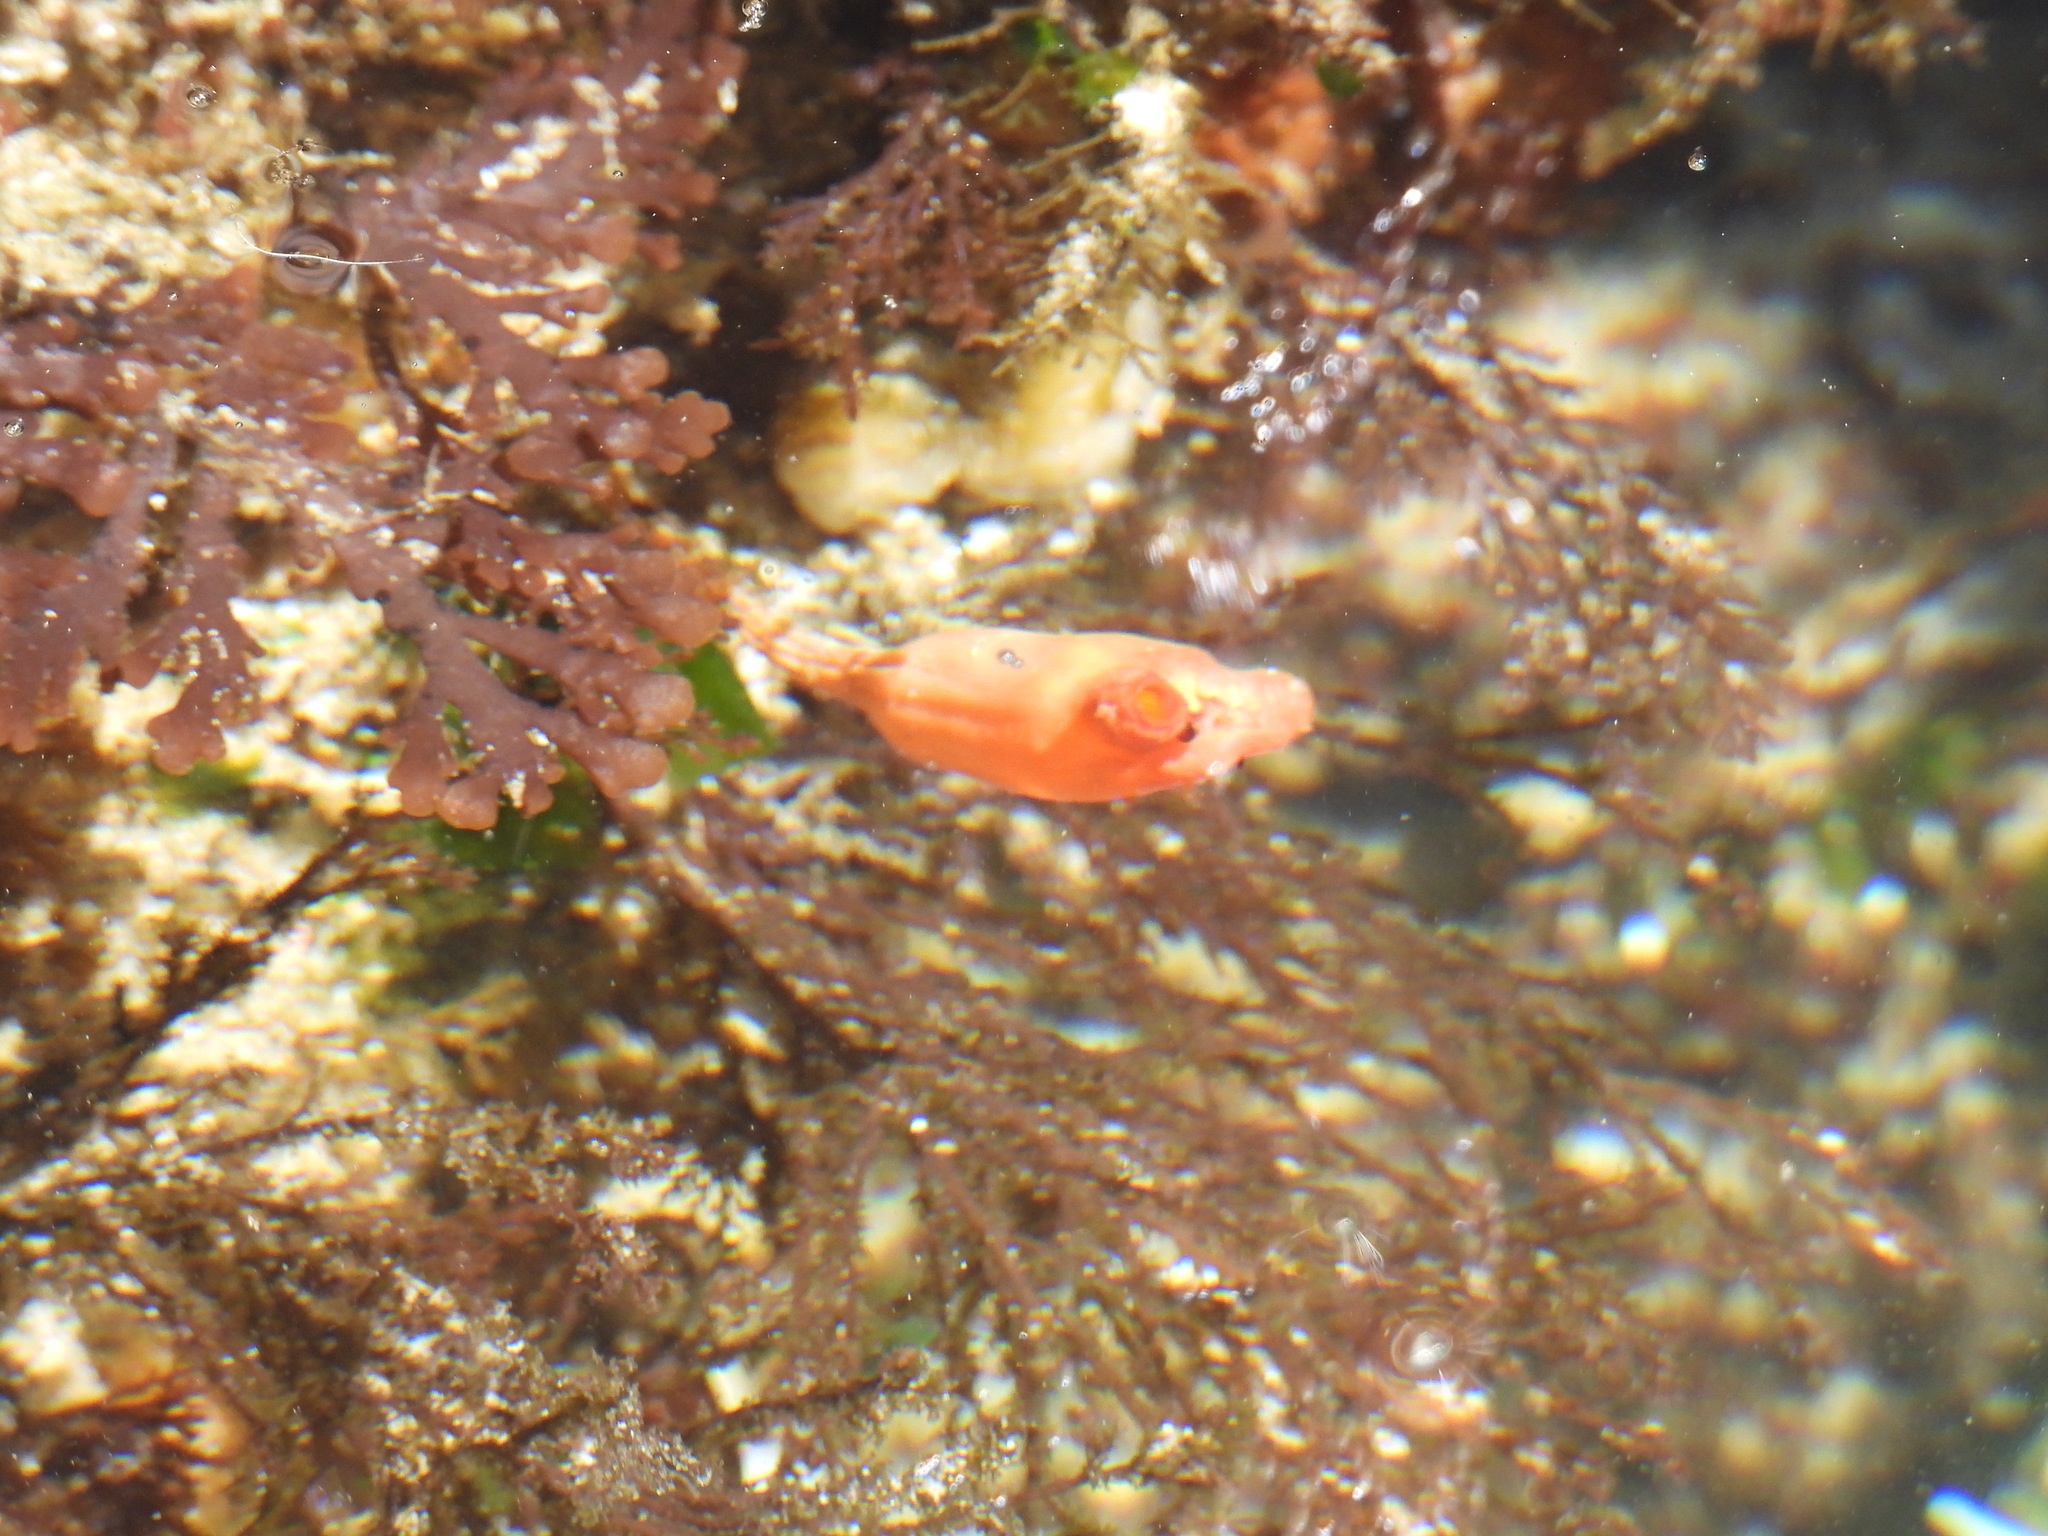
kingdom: Animalia
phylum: Chordata
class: Ascidiacea
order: Stolidobranchia
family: Styelidae
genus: Styela
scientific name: Styela montereyensis
